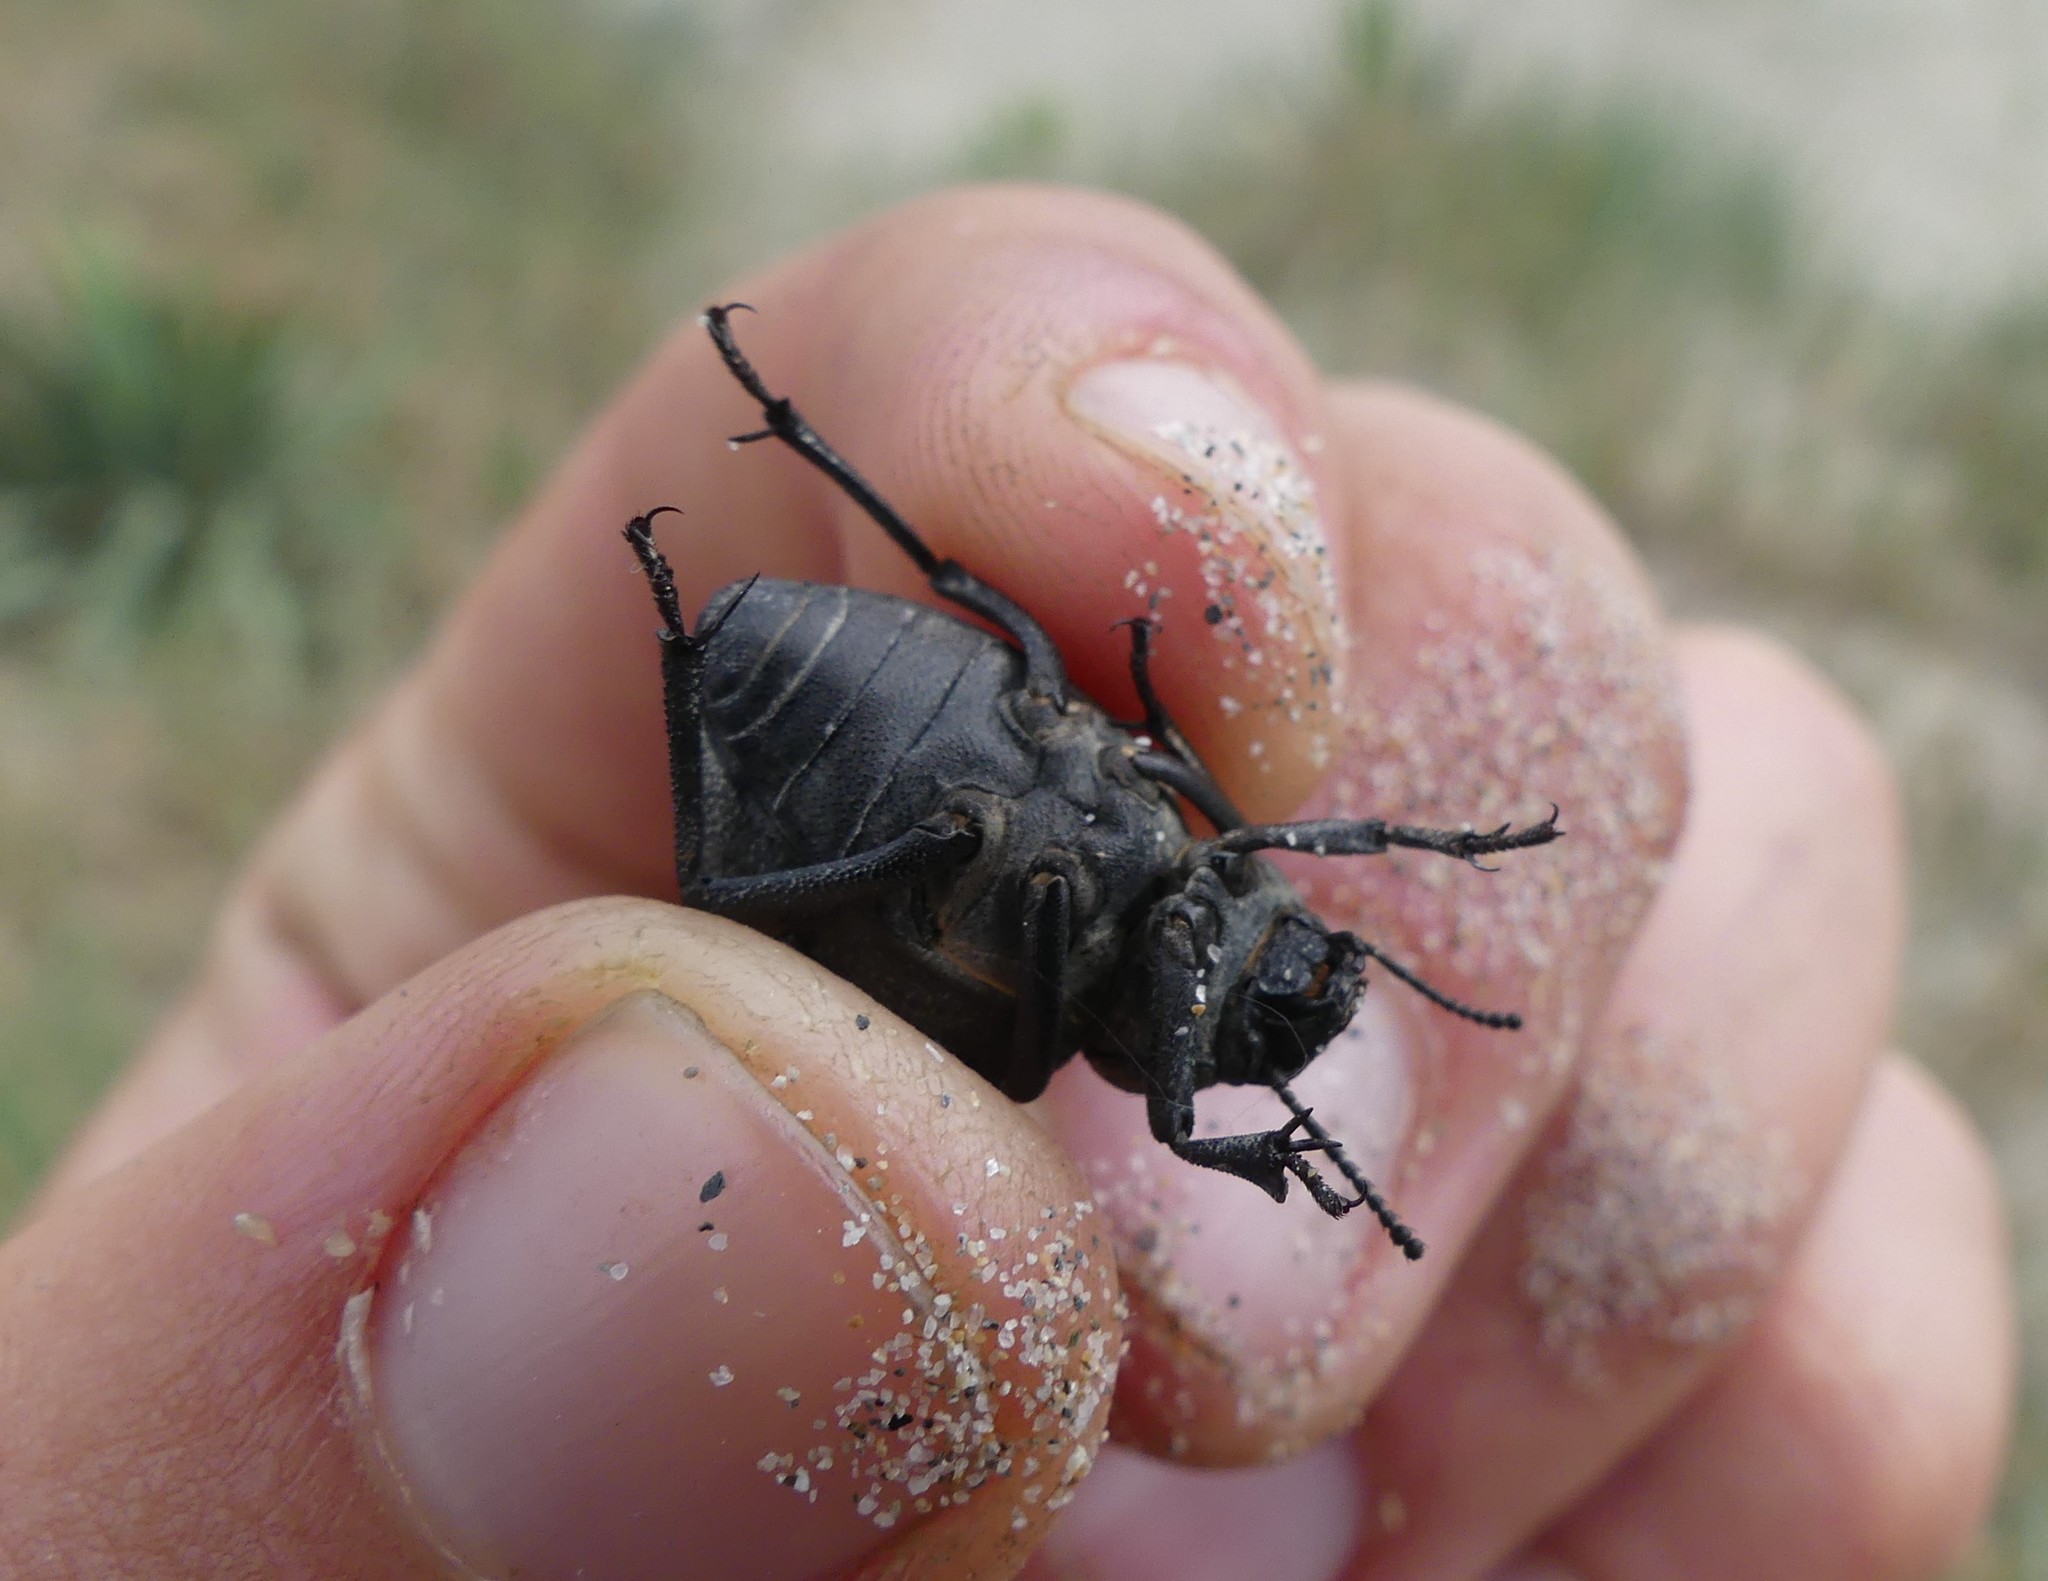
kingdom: Animalia
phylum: Arthropoda
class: Insecta
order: Coleoptera
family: Tenebrionidae
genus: Pimelia
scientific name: Pimelia muricata
